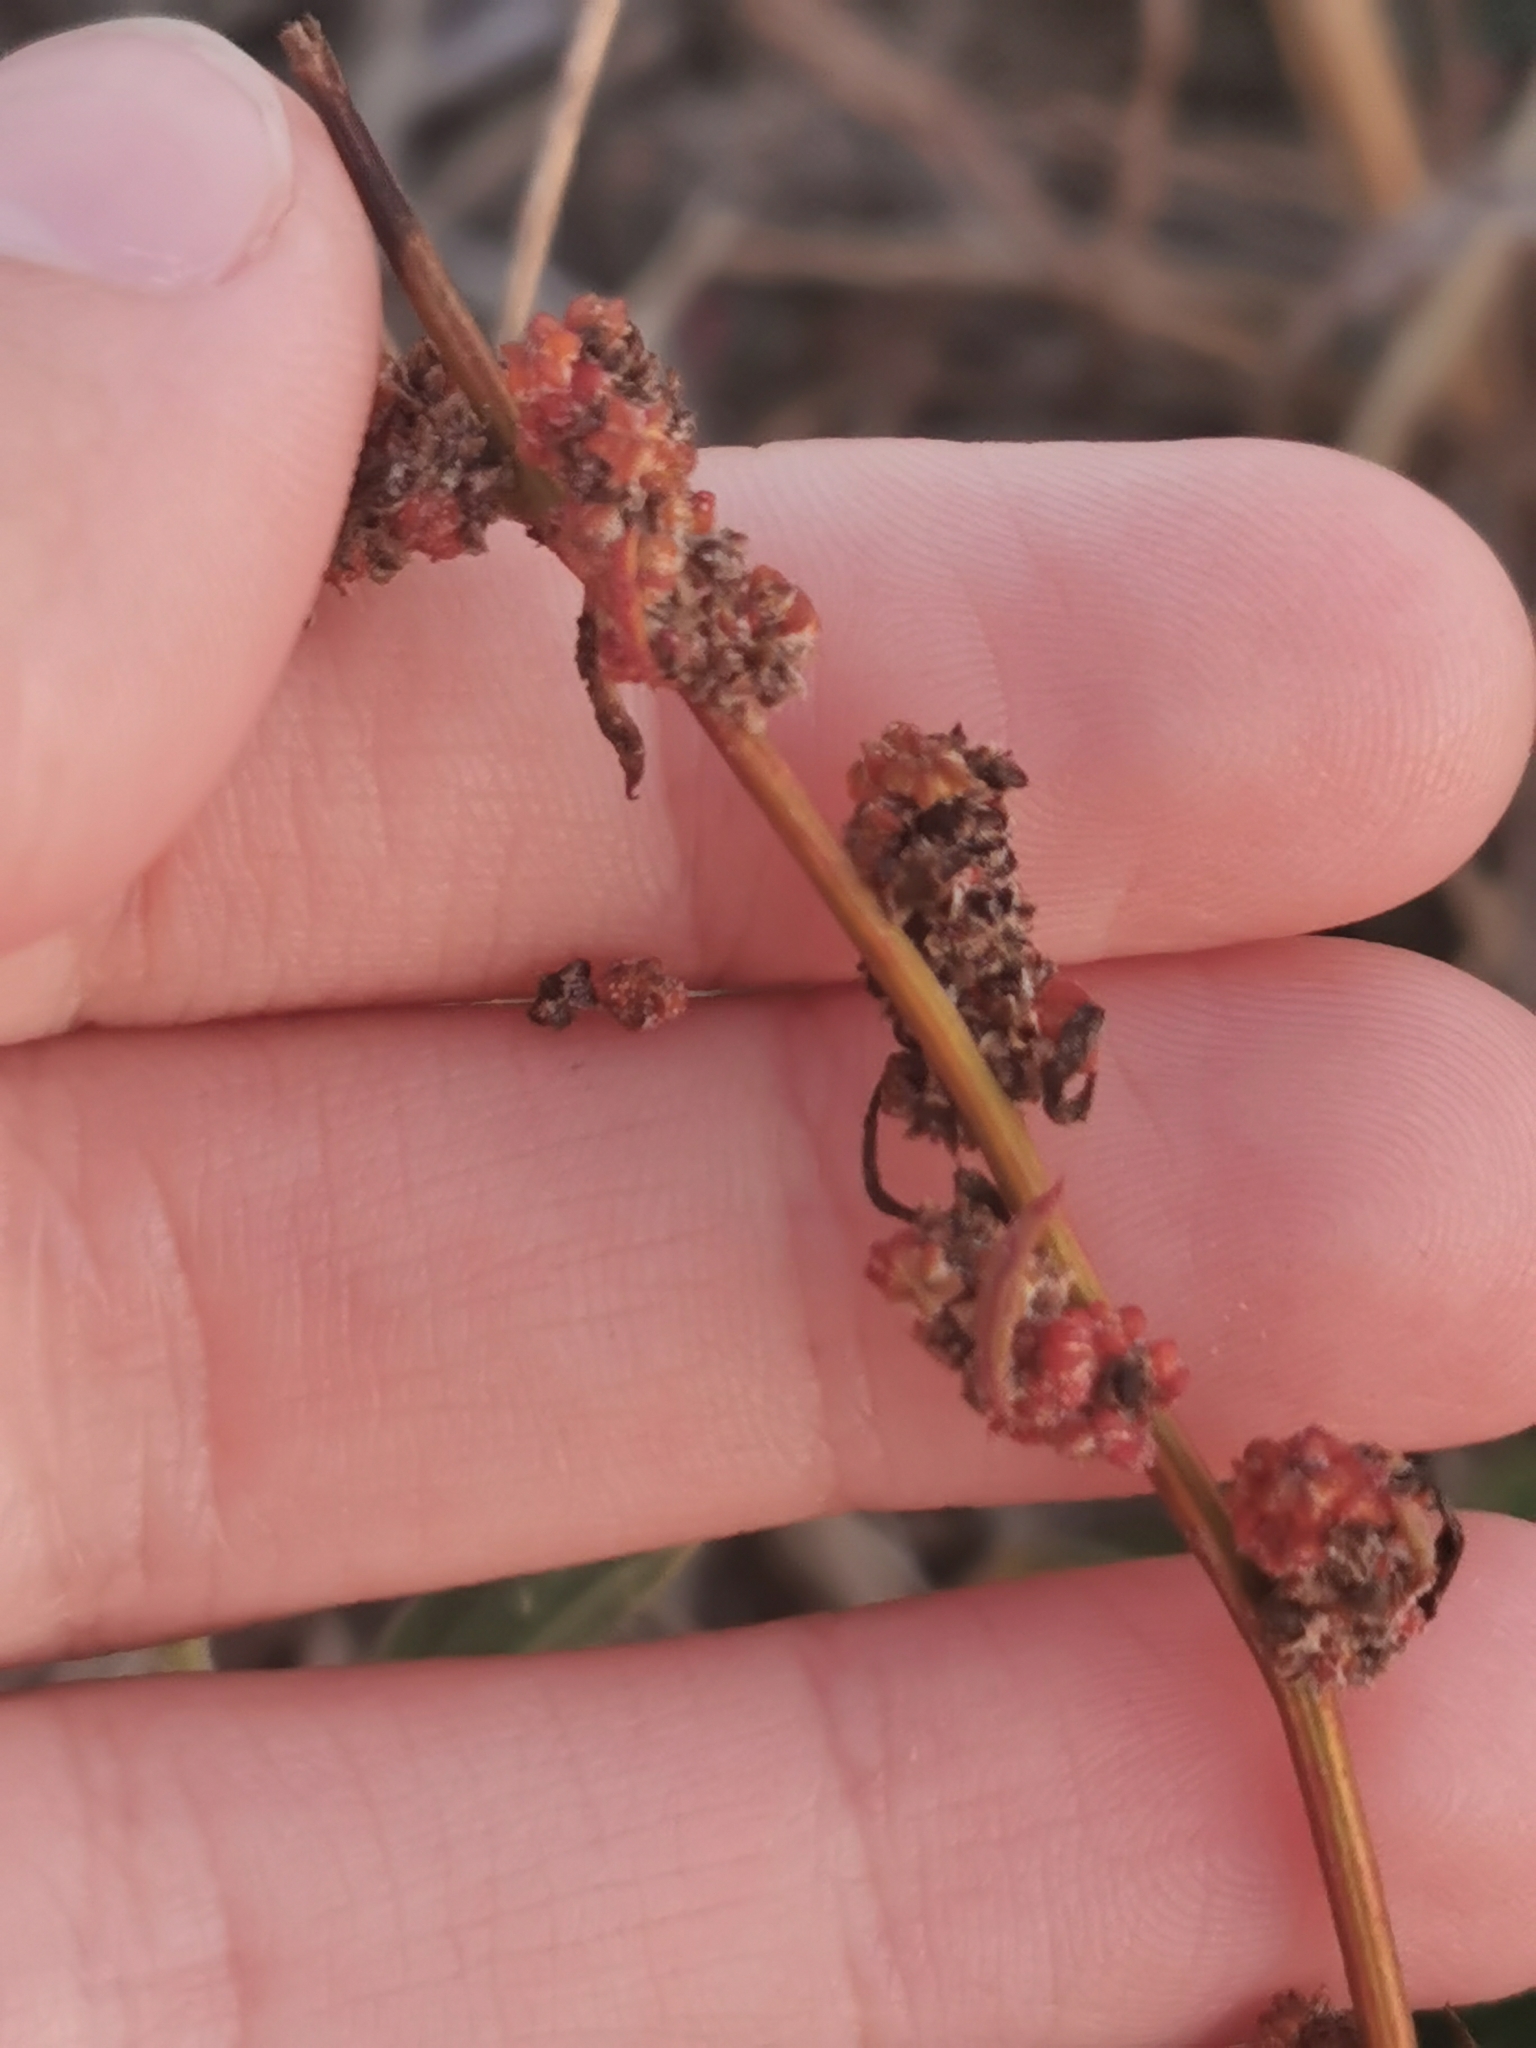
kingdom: Plantae
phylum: Tracheophyta
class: Magnoliopsida
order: Caryophyllales
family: Amaranthaceae
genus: Chenopodium
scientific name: Chenopodium album
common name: Fat-hen
